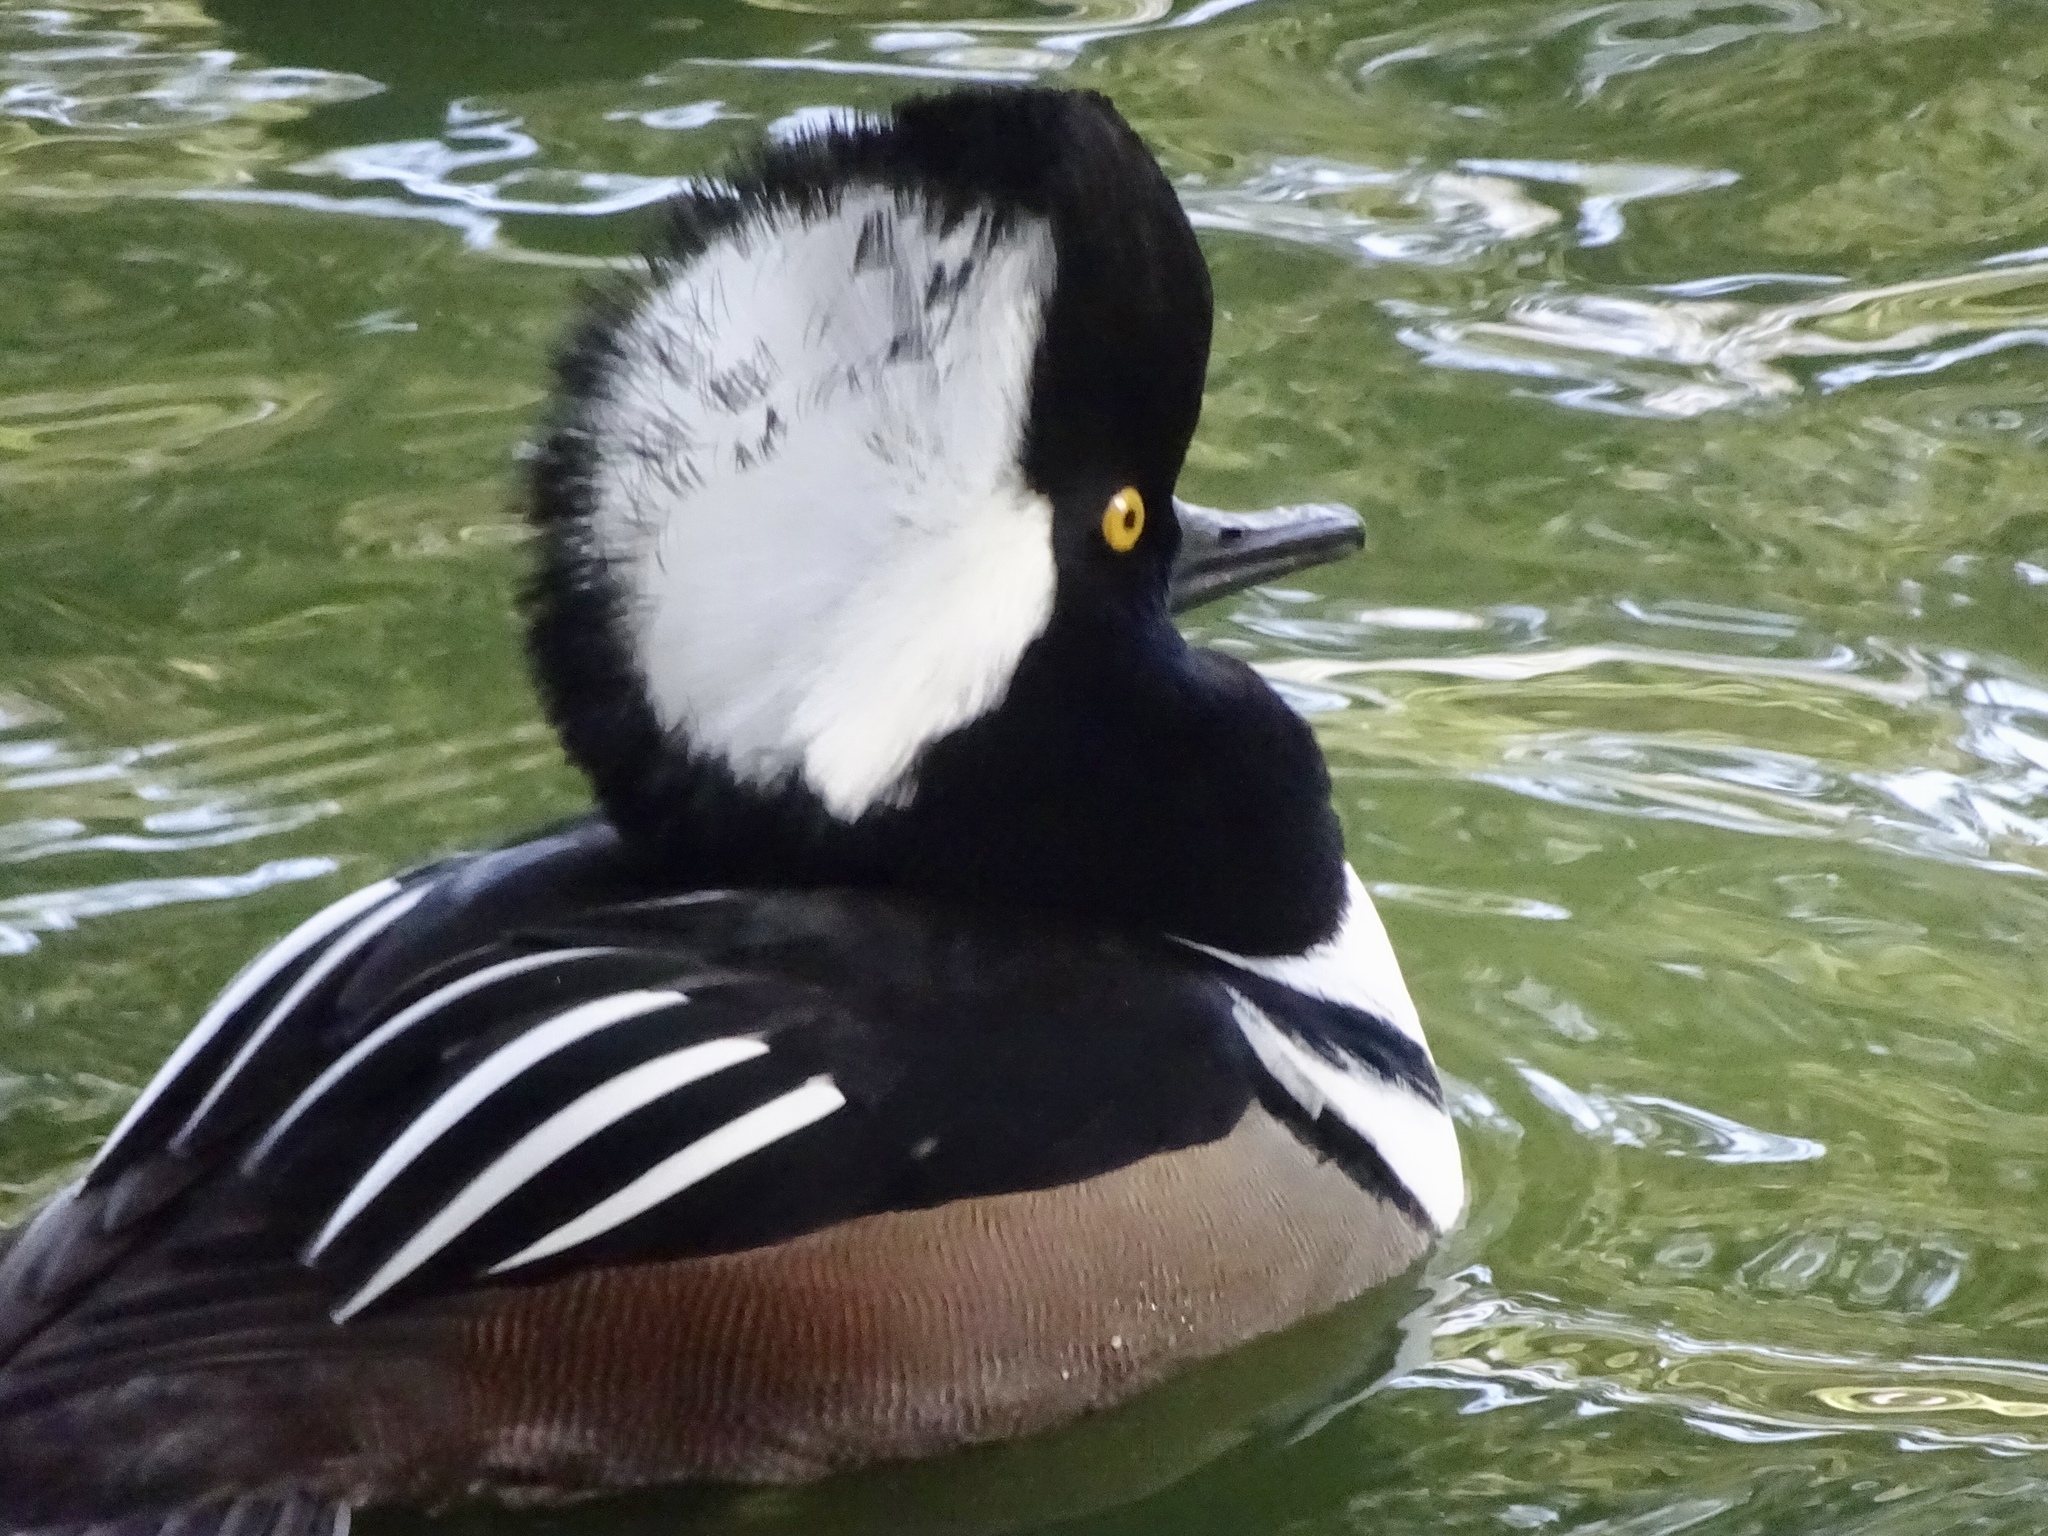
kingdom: Animalia
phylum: Chordata
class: Aves
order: Anseriformes
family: Anatidae
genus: Lophodytes
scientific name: Lophodytes cucullatus
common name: Hooded merganser
